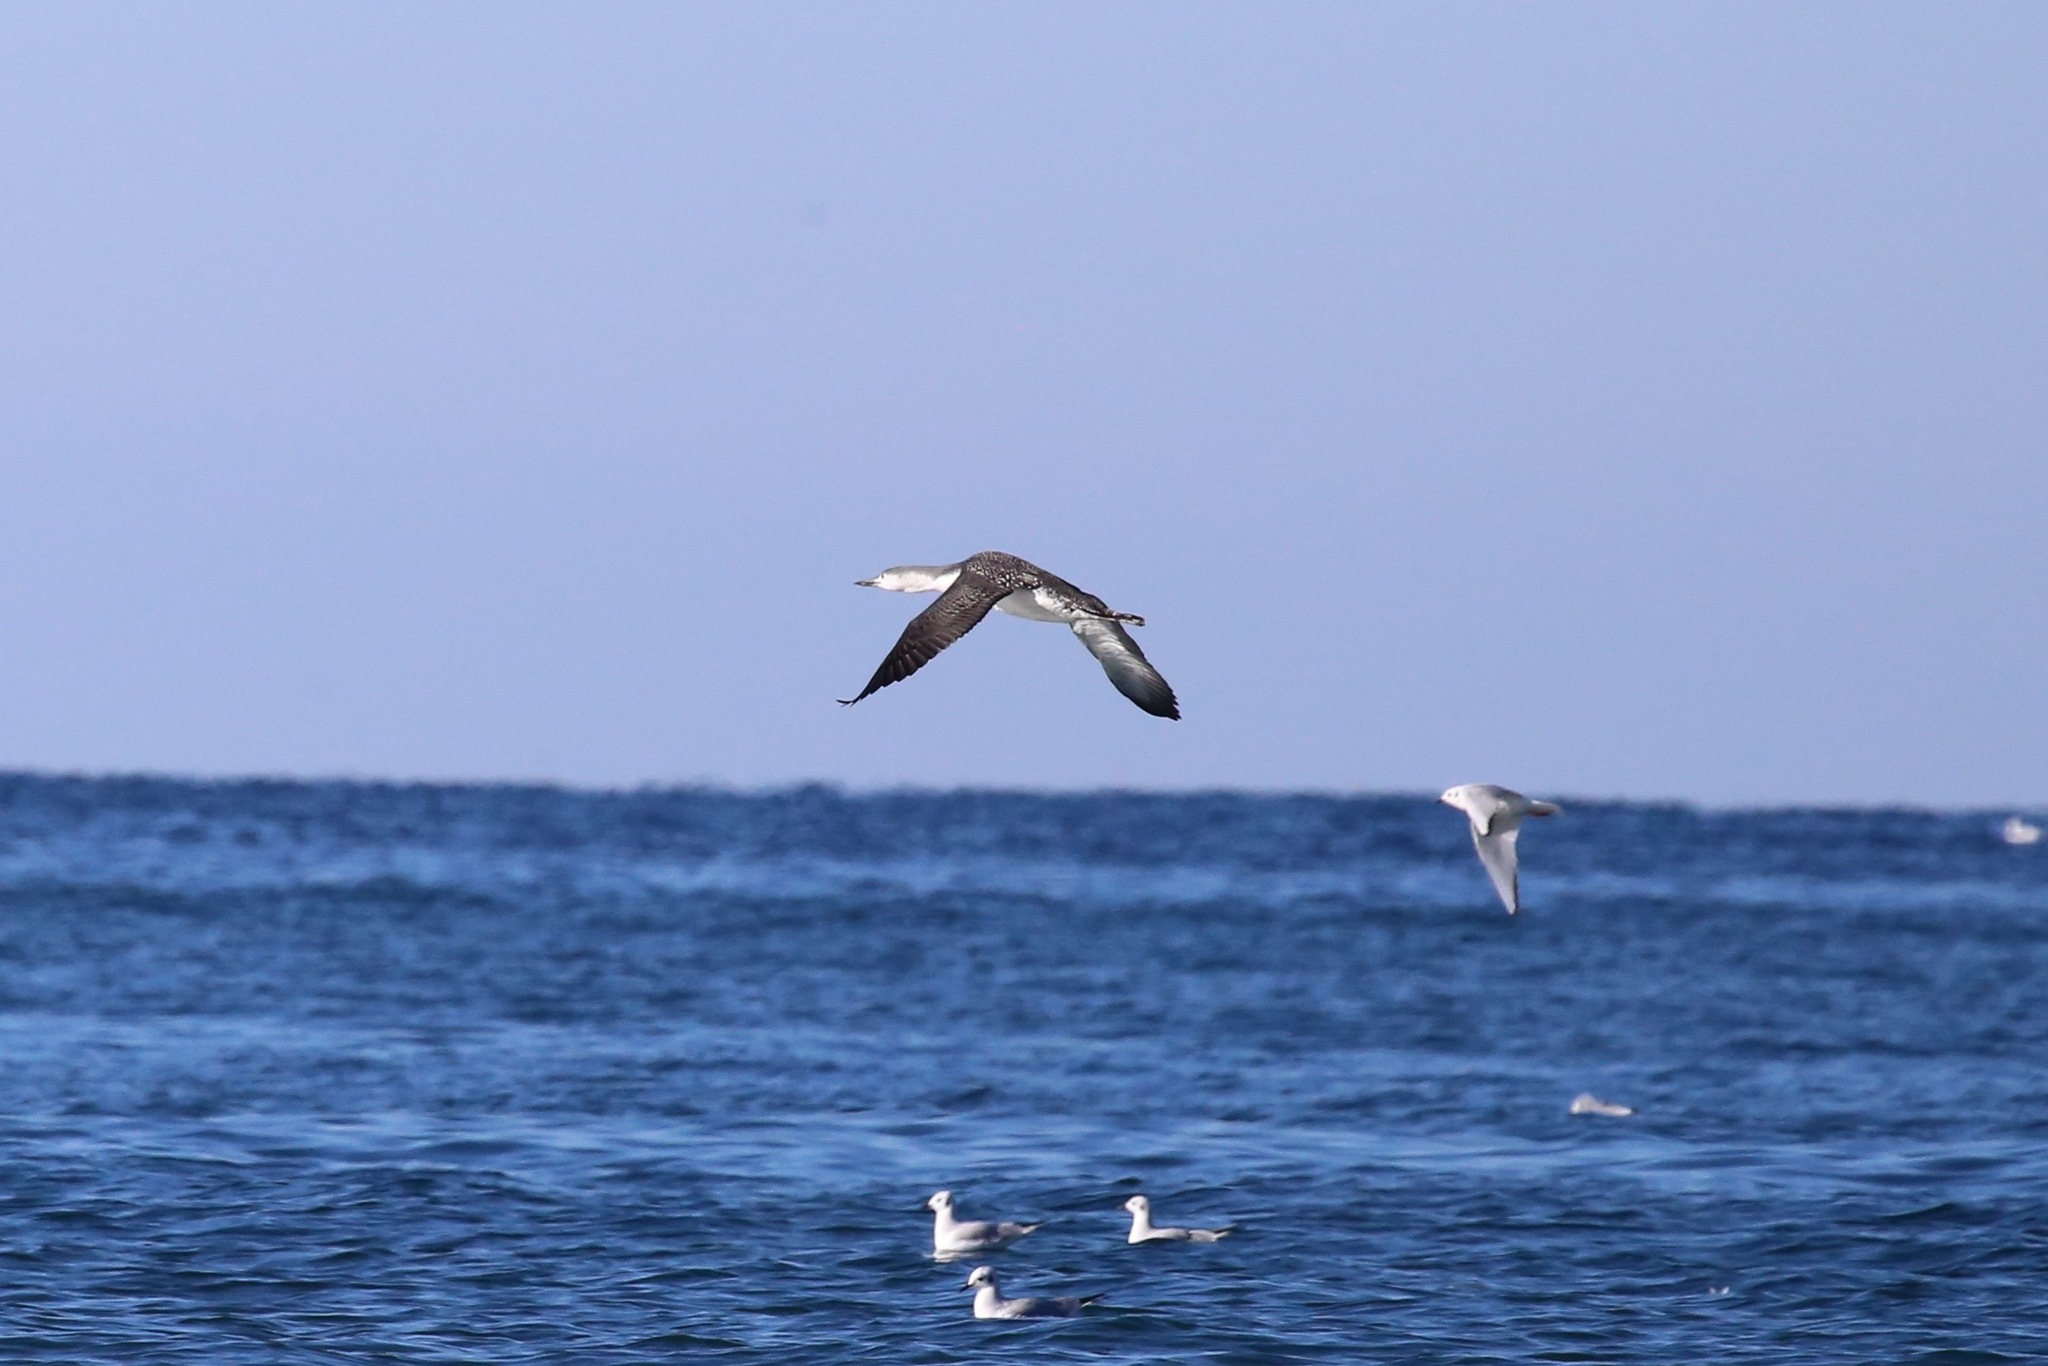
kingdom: Animalia
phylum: Chordata
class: Aves
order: Gaviiformes
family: Gaviidae
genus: Gavia
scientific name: Gavia stellata
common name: Red-throated loon
